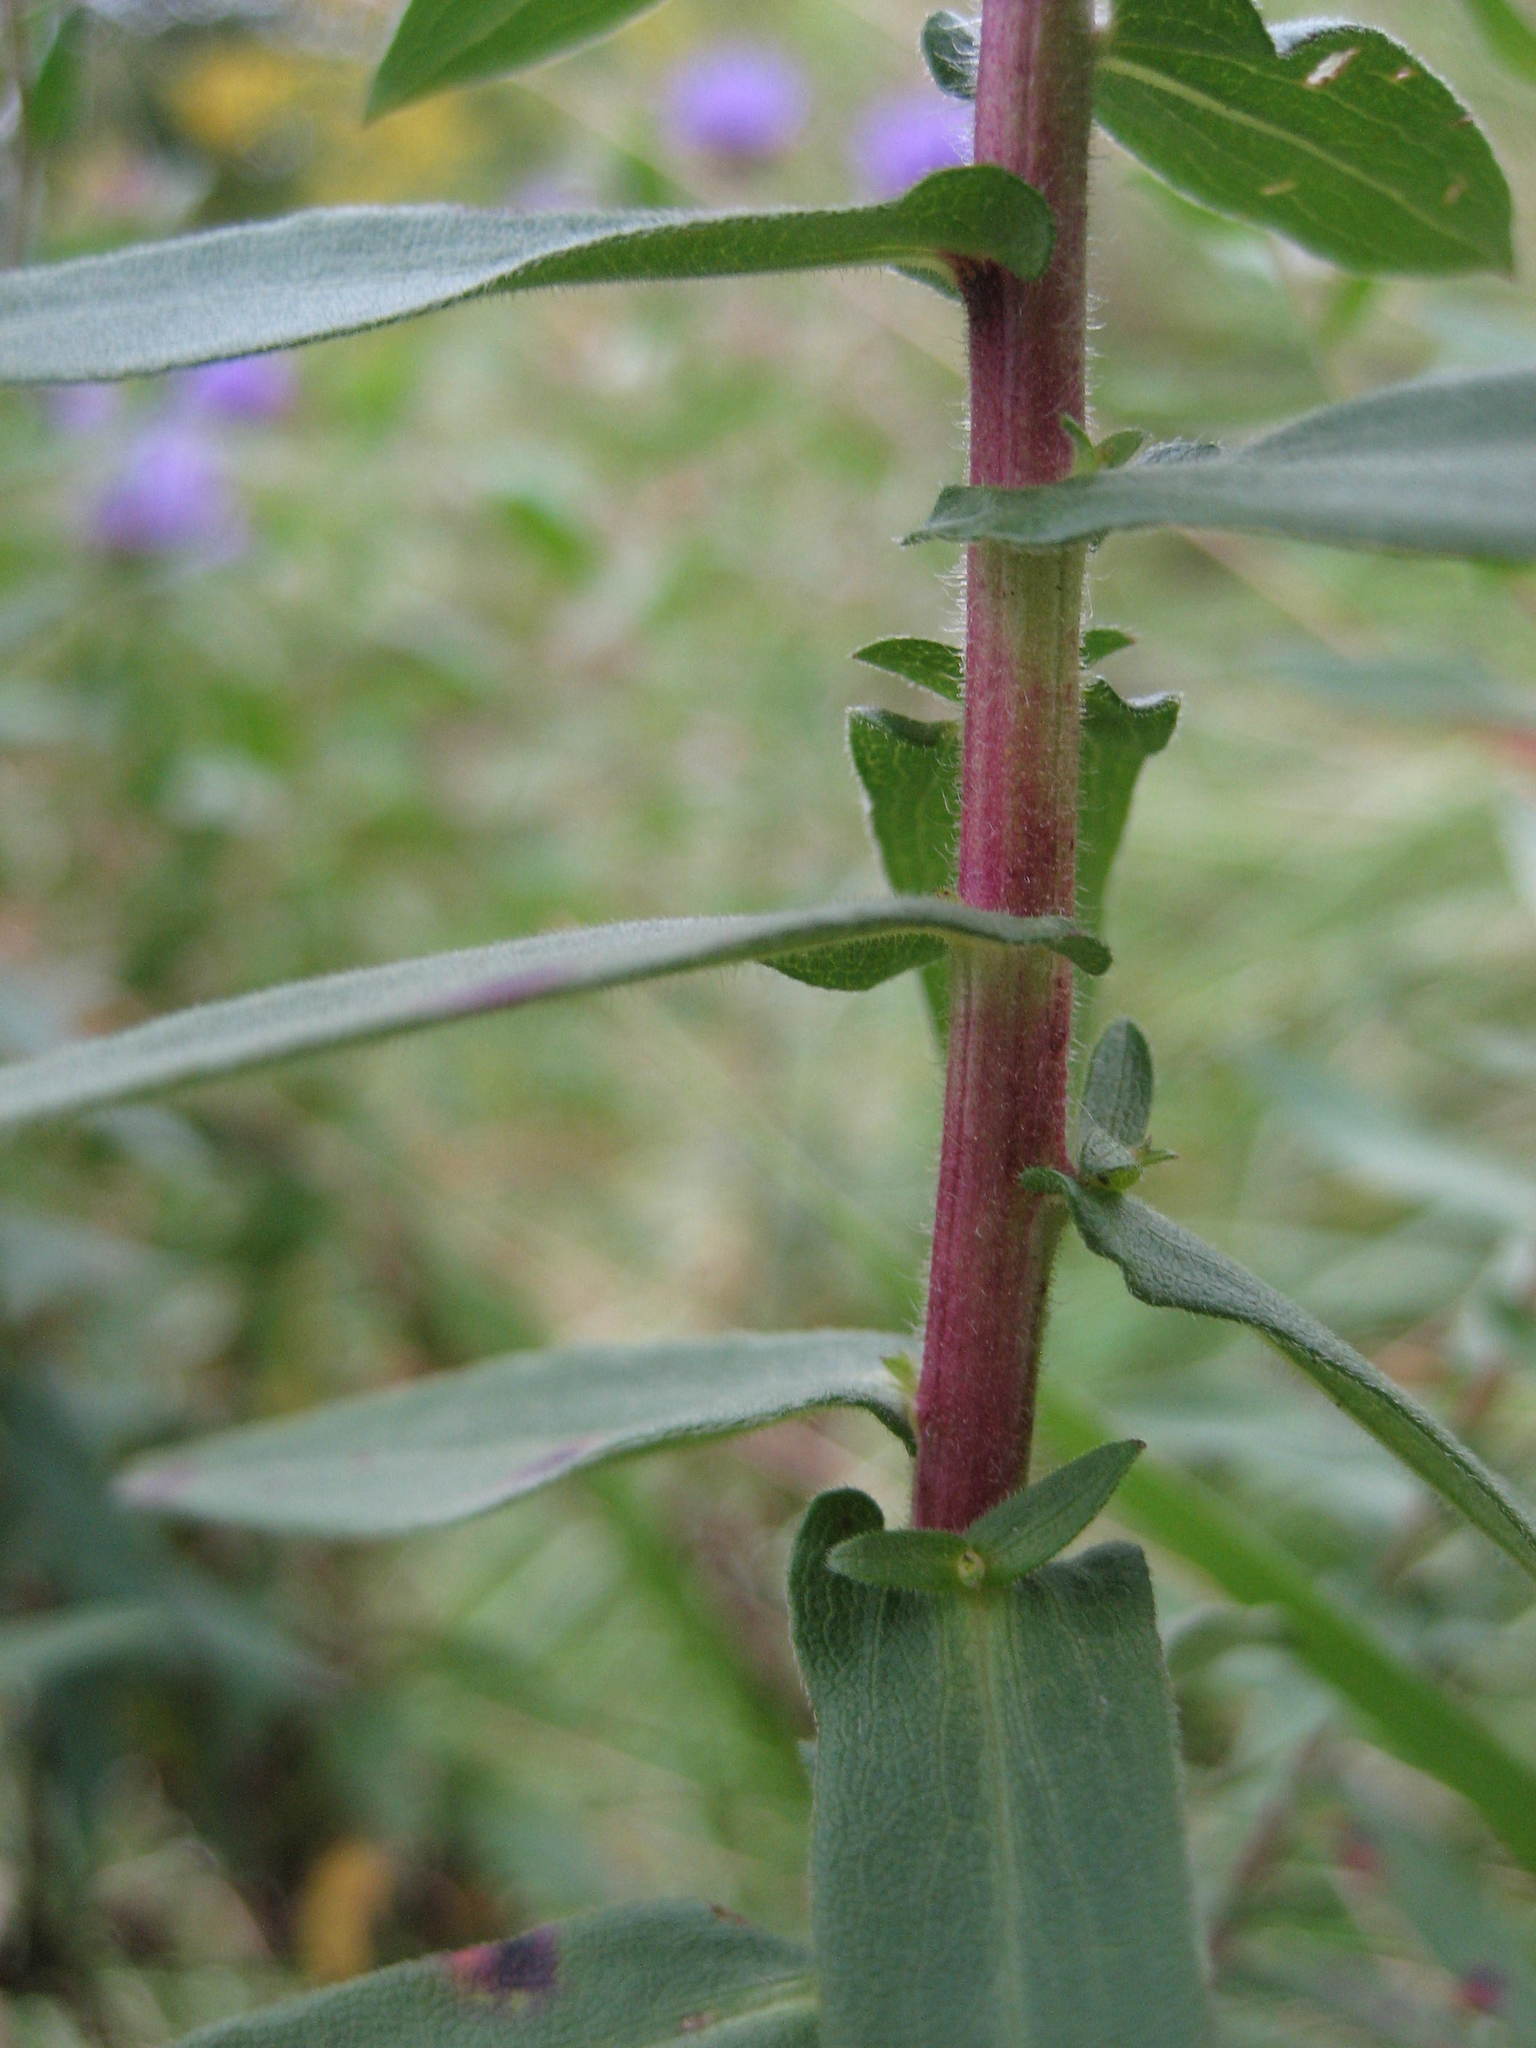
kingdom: Plantae
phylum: Tracheophyta
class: Magnoliopsida
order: Asterales
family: Asteraceae
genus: Symphyotrichum
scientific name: Symphyotrichum novae-angliae
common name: Michaelmas daisy
